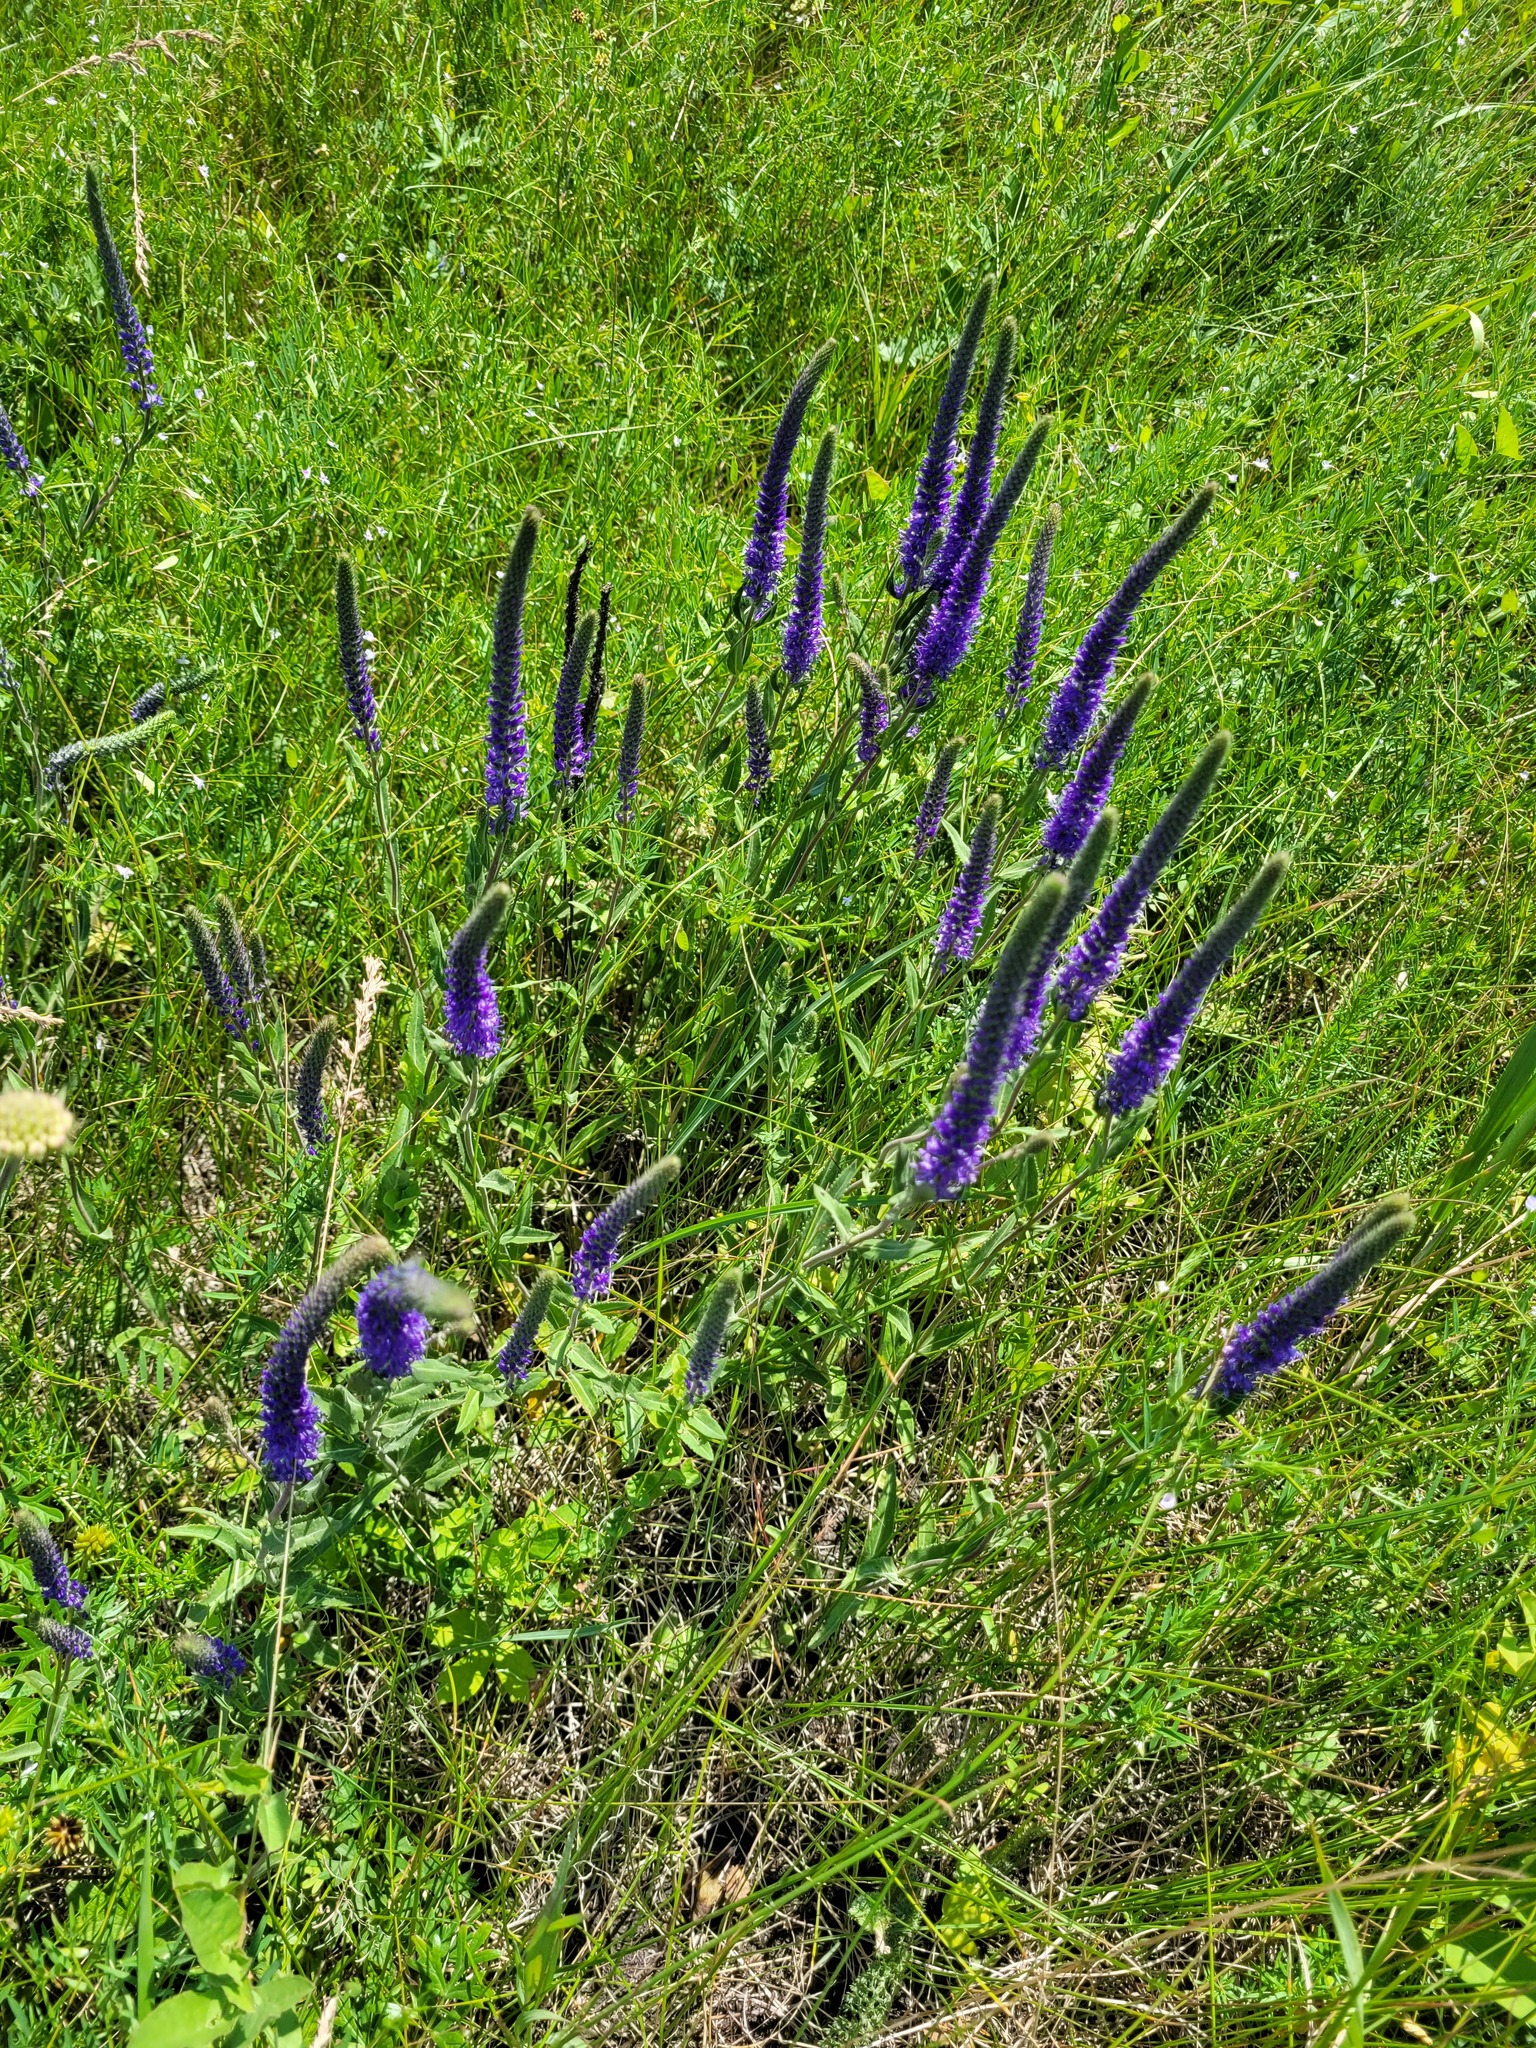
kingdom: Plantae
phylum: Tracheophyta
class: Magnoliopsida
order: Lamiales
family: Plantaginaceae
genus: Veronica
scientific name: Veronica spicata
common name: Spiked speedwell
